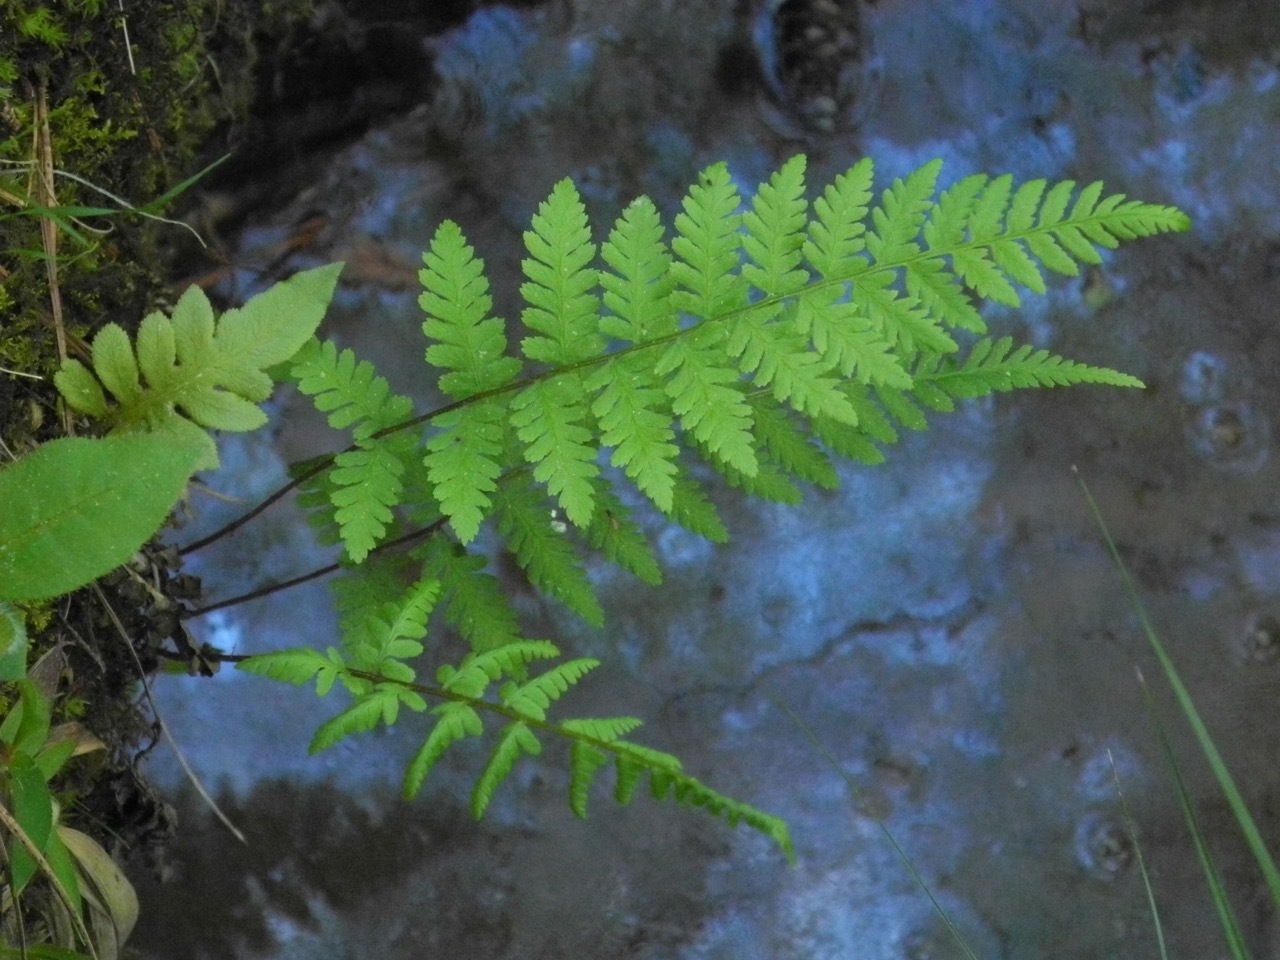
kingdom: Plantae
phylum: Tracheophyta
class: Polypodiopsida
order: Polypodiales
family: Athyriaceae
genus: Athyrium
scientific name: Athyrium asplenioides
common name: Southern lady fern
